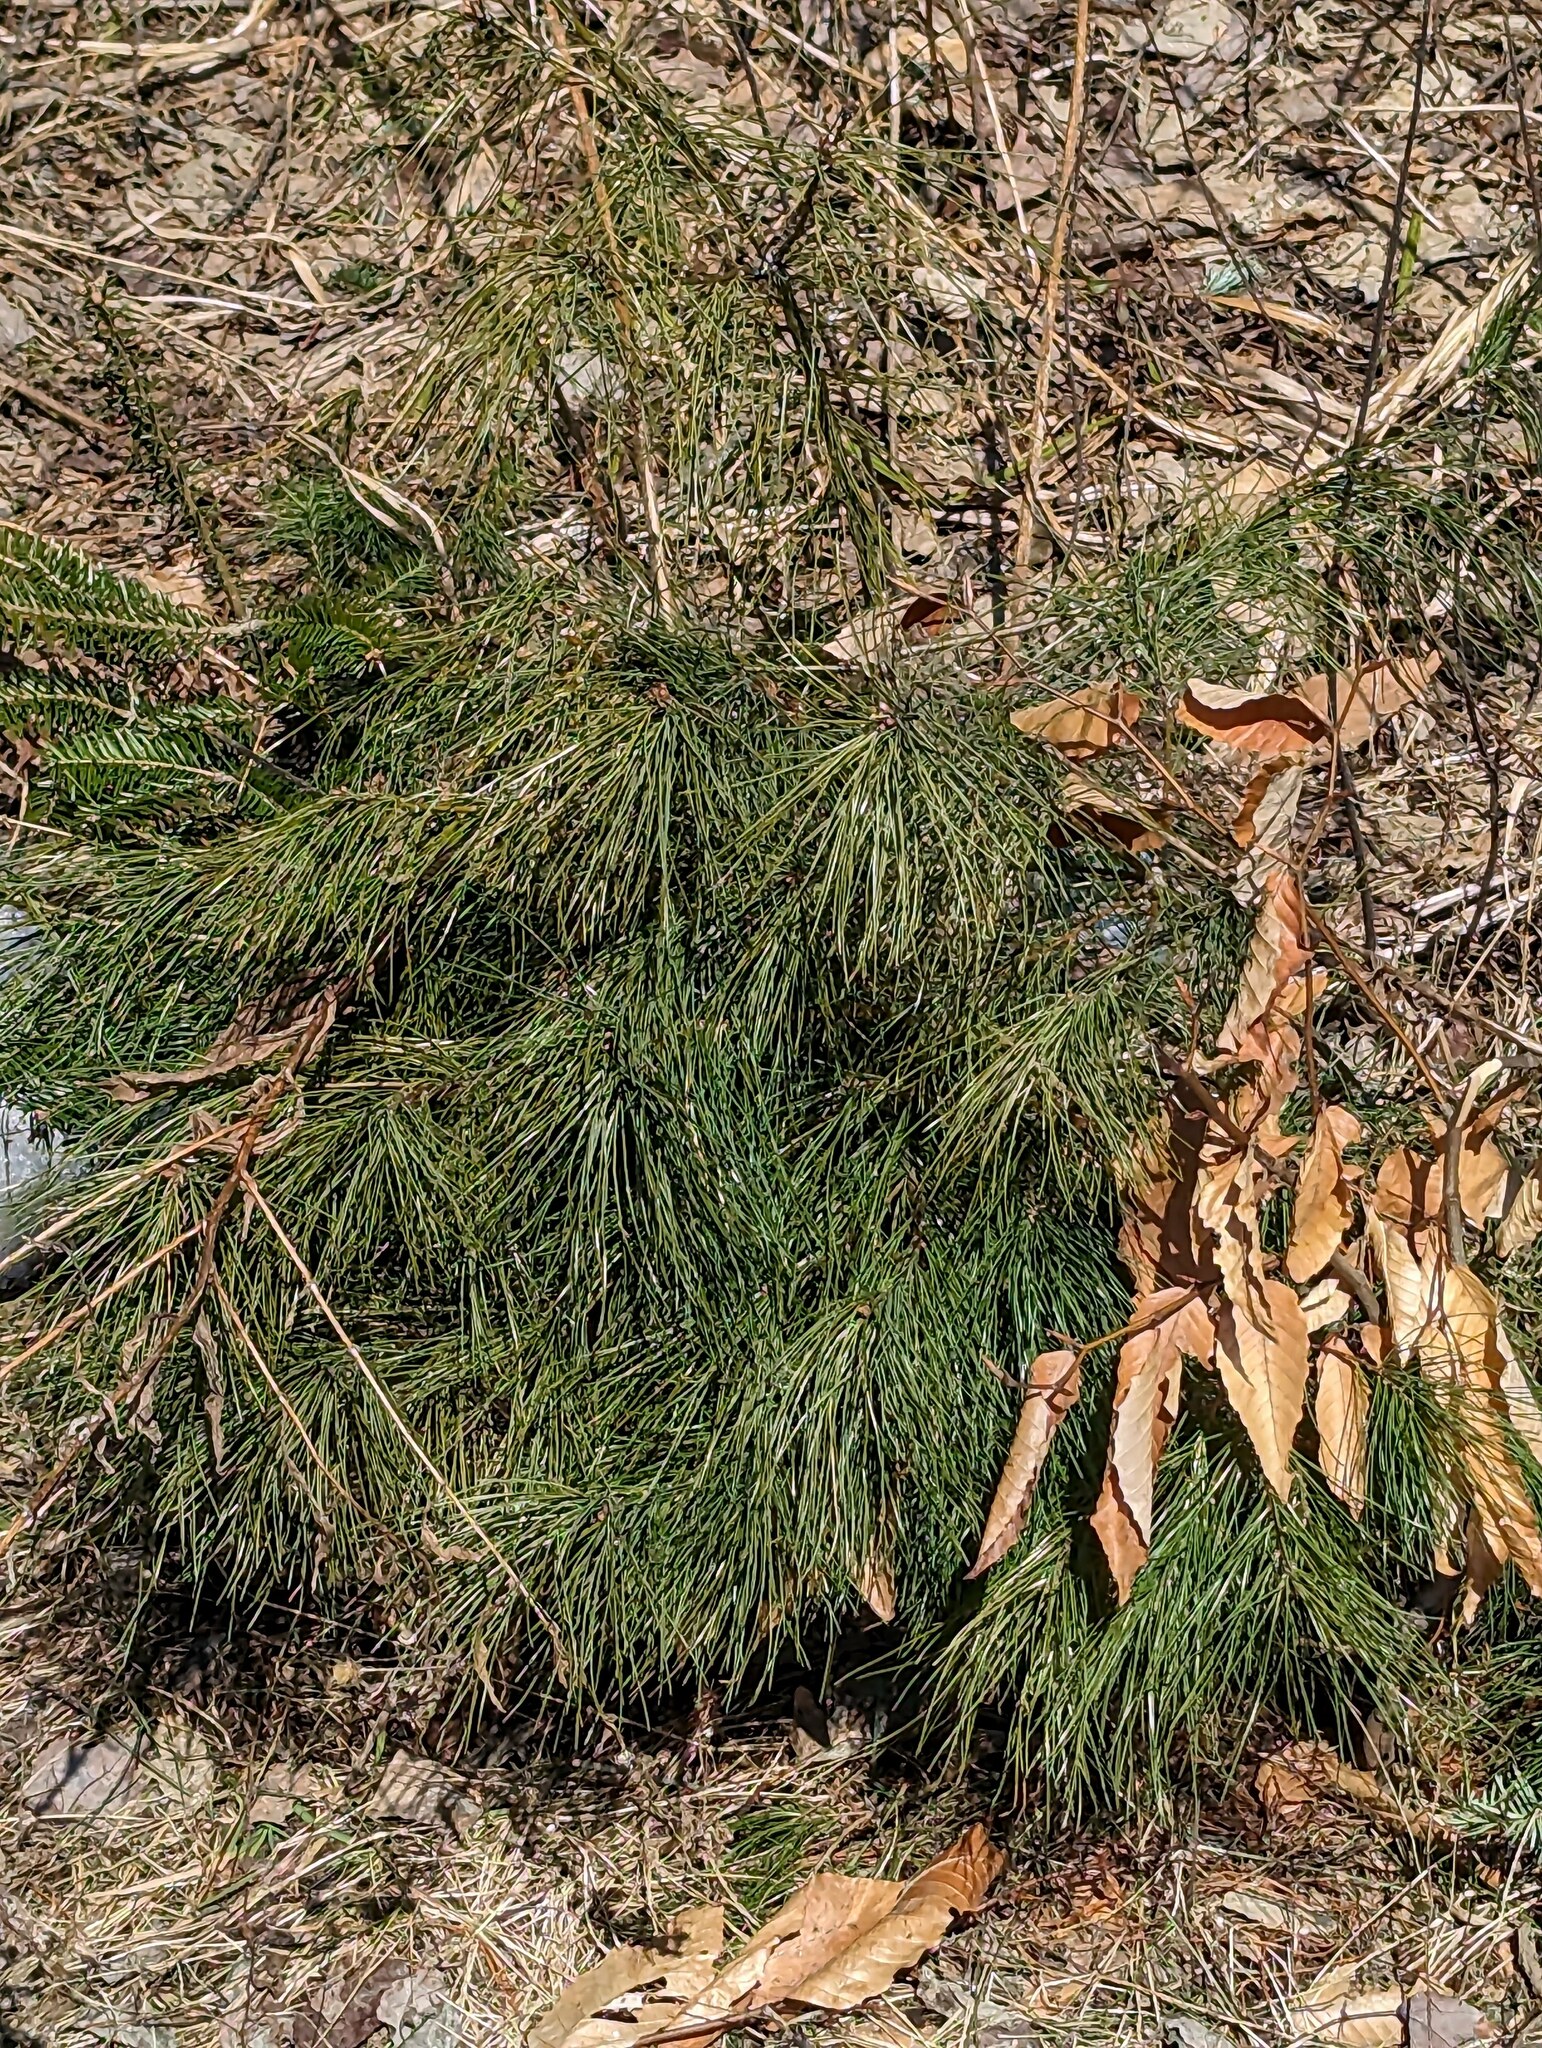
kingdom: Plantae
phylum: Tracheophyta
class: Pinopsida
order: Pinales
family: Pinaceae
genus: Pinus
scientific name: Pinus strobus
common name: Weymouth pine
